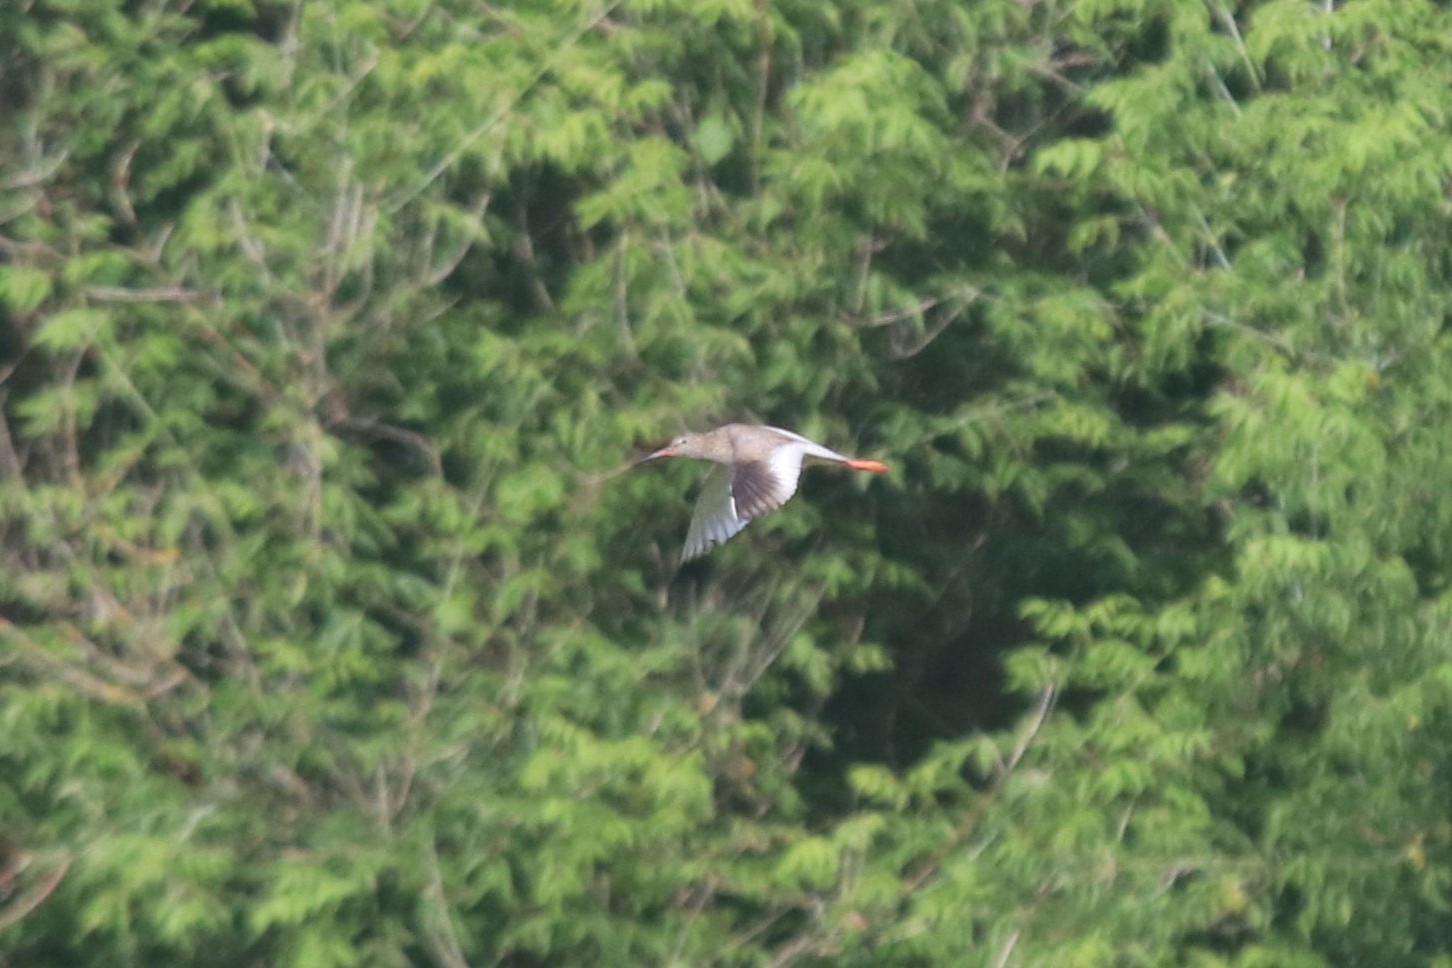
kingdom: Animalia
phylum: Chordata
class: Aves
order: Charadriiformes
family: Scolopacidae
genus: Tringa
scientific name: Tringa totanus
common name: Common redshank
